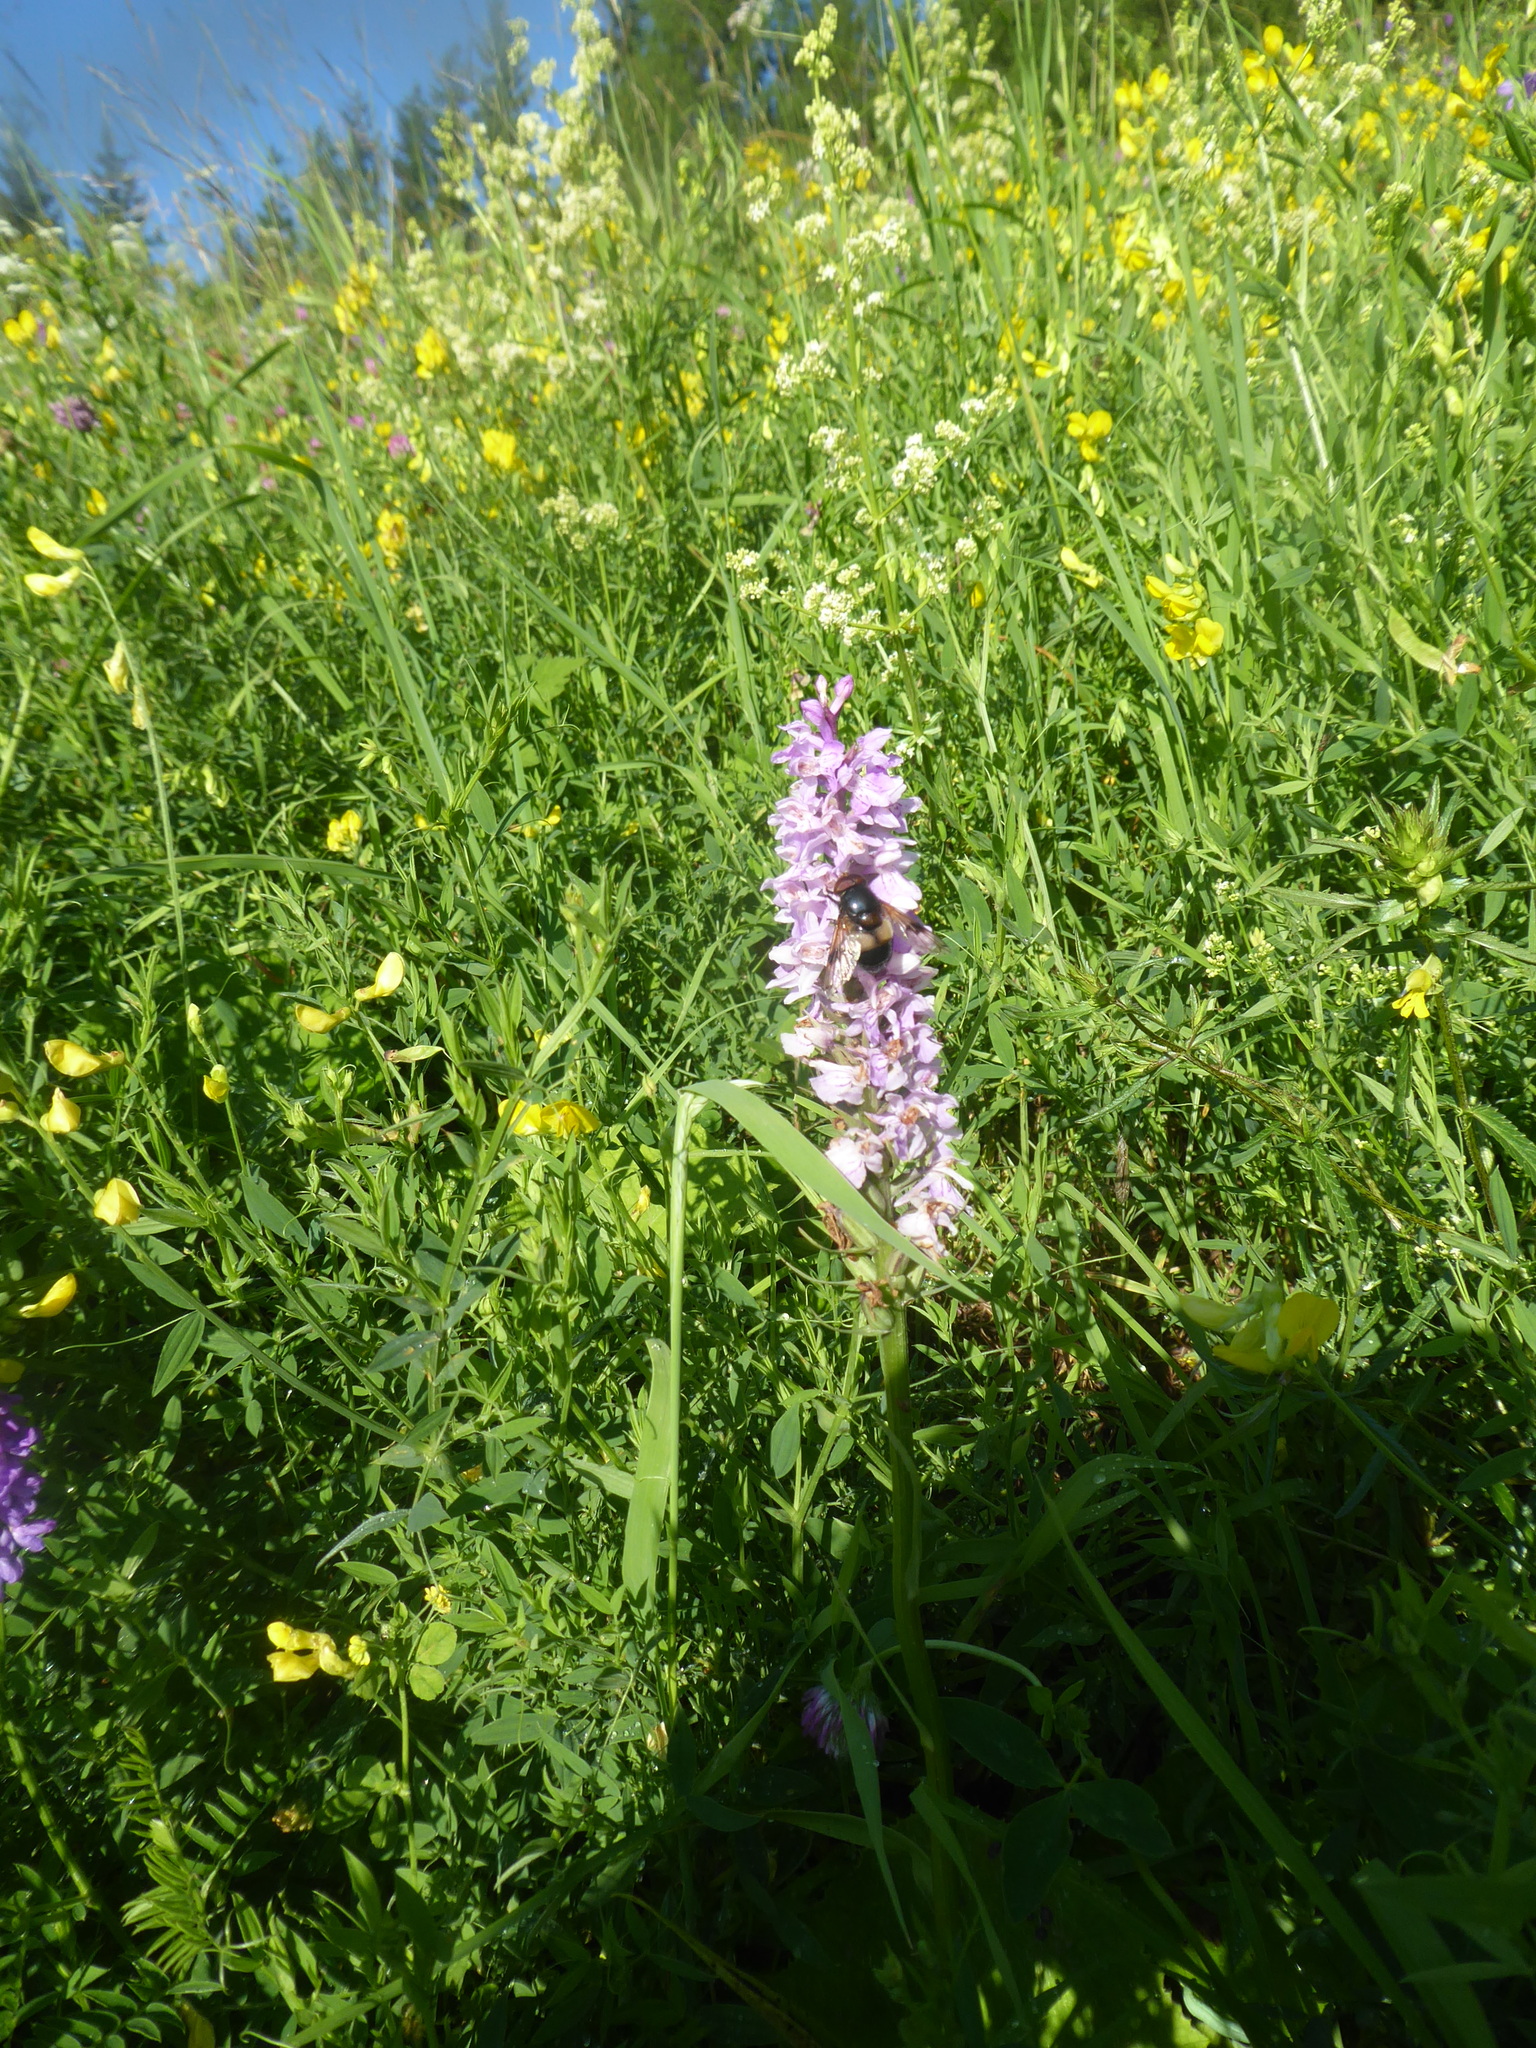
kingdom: Plantae
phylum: Tracheophyta
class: Liliopsida
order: Asparagales
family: Orchidaceae
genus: Dactylorhiza
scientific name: Dactylorhiza maculata
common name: Heath spotted-orchid
